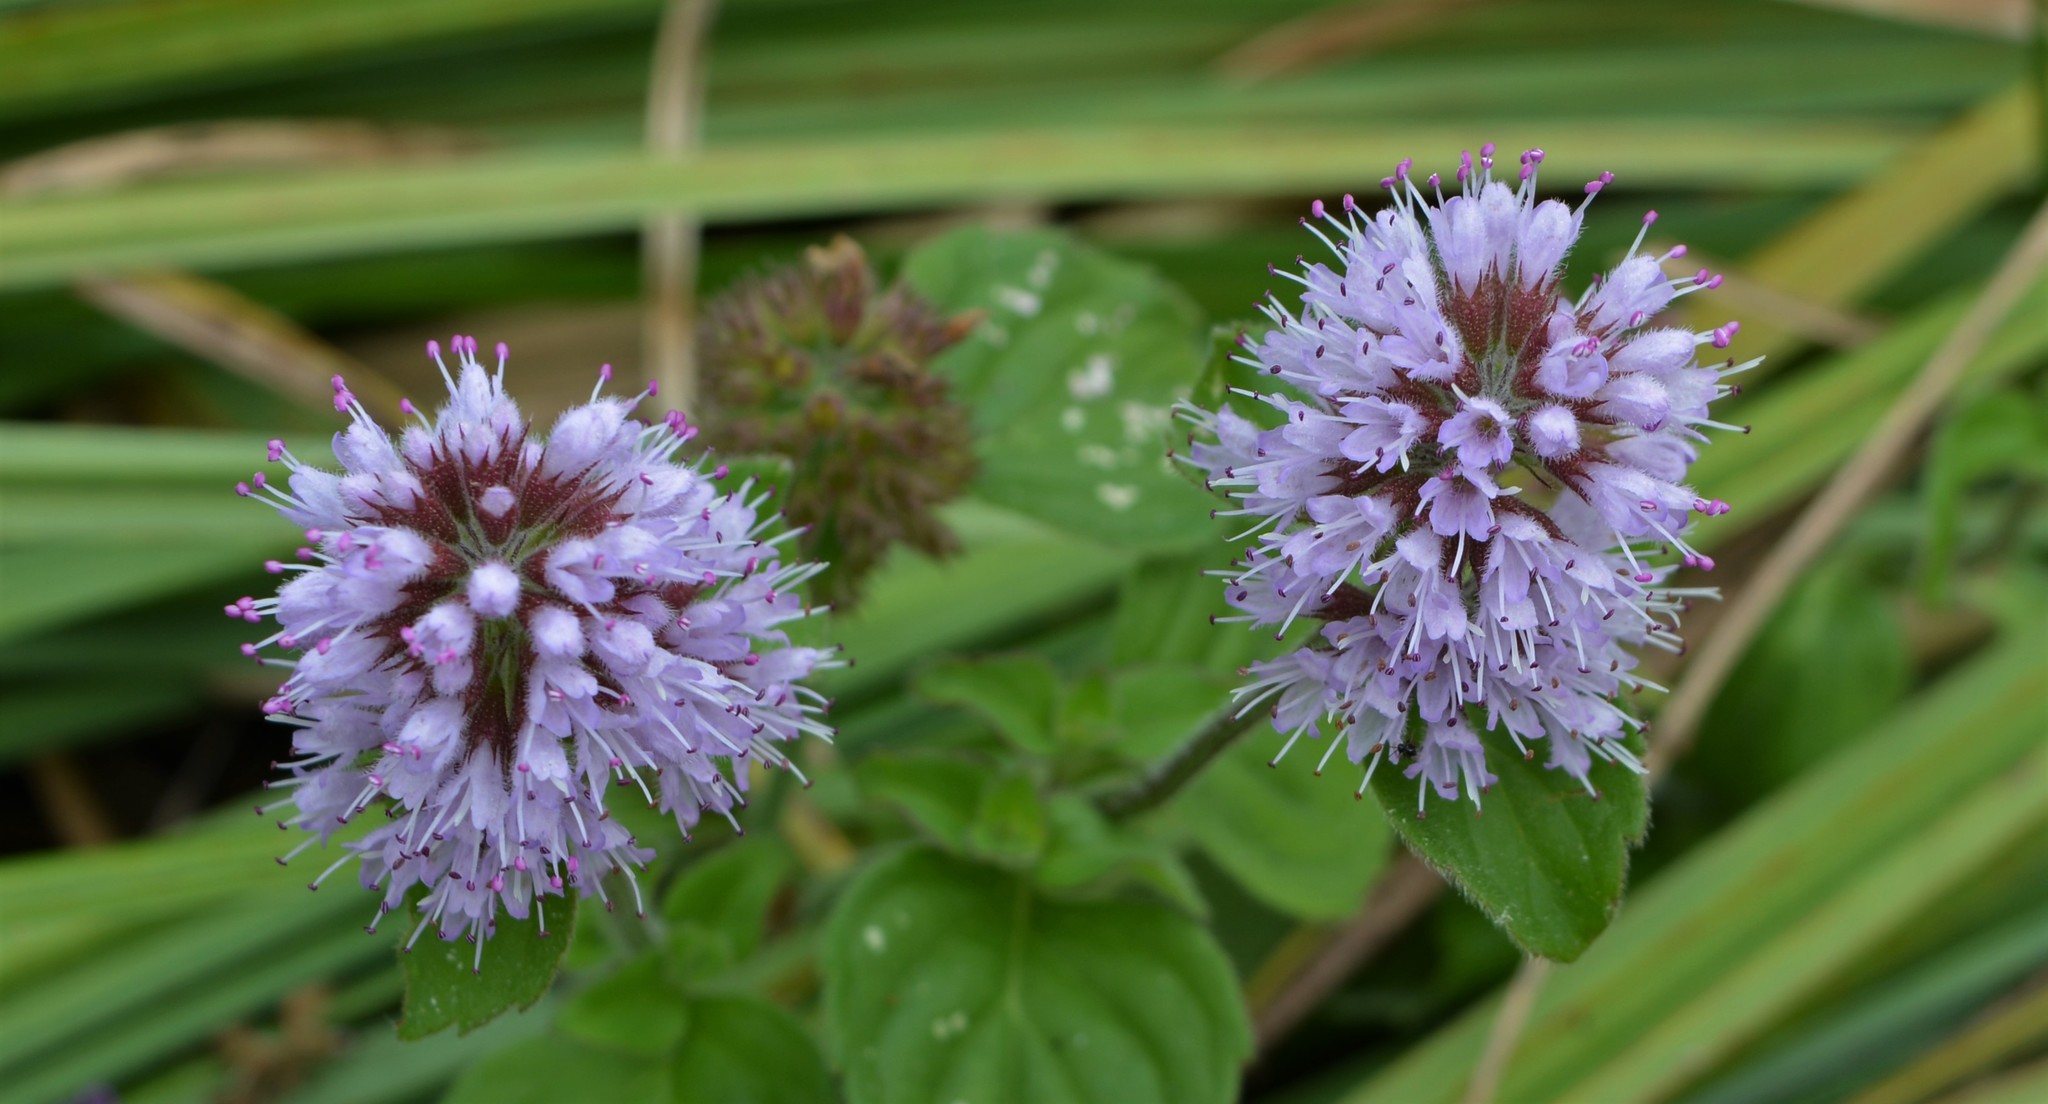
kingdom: Plantae
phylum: Tracheophyta
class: Magnoliopsida
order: Lamiales
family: Lamiaceae
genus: Mentha
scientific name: Mentha aquatica
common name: Water mint
